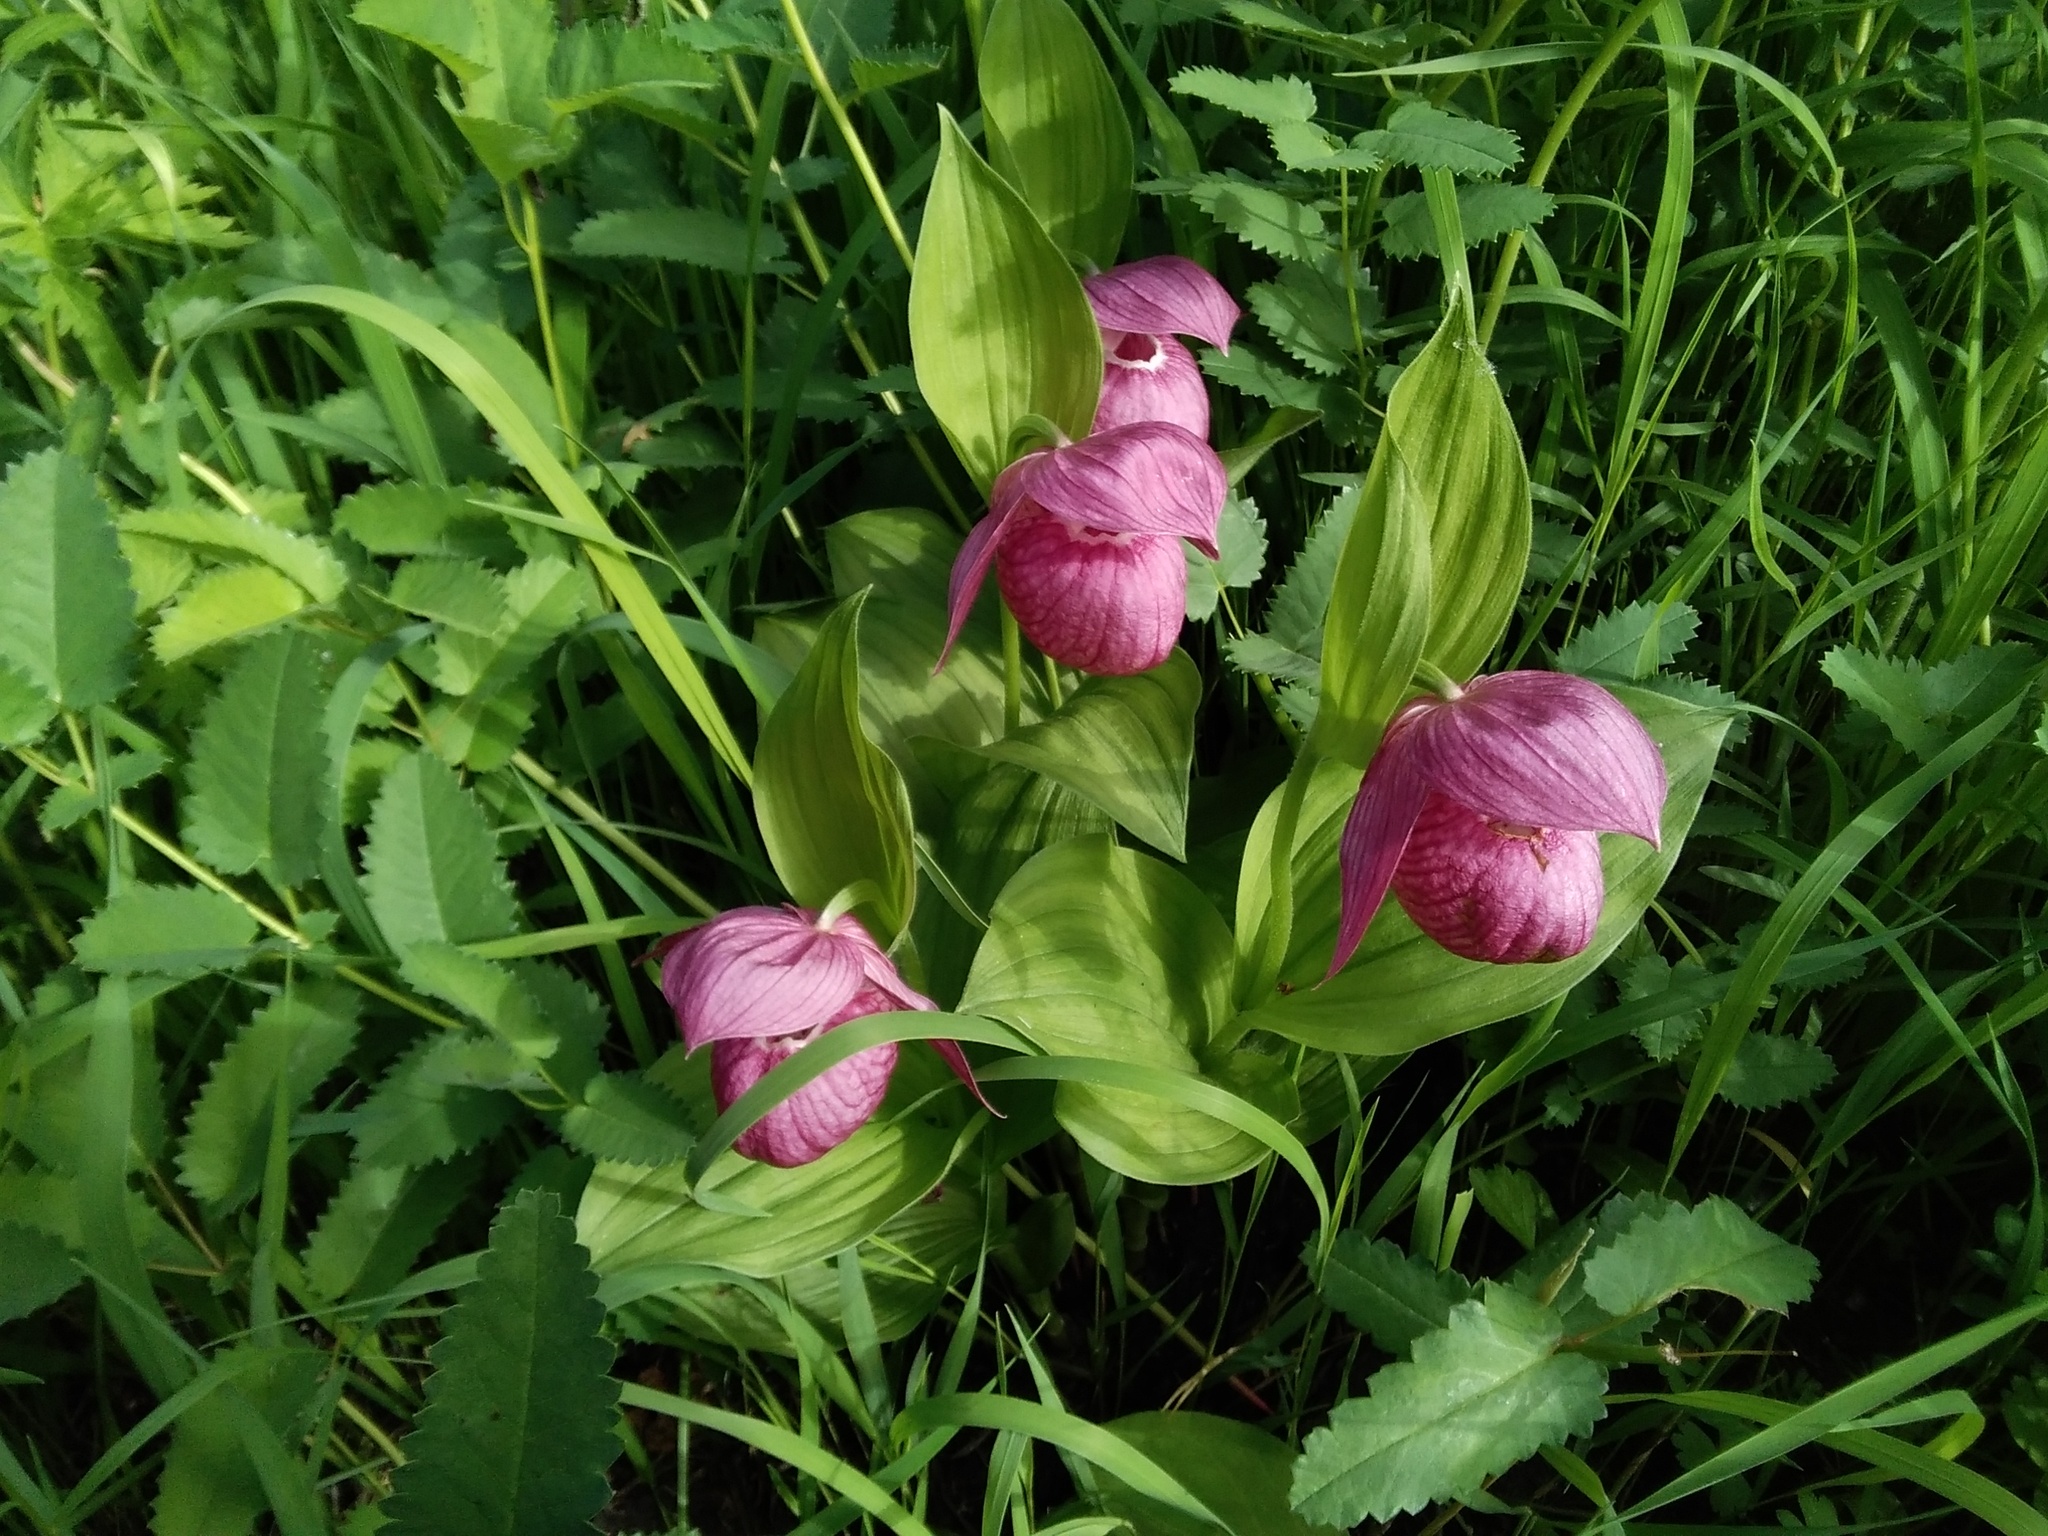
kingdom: Plantae
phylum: Tracheophyta
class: Liliopsida
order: Asparagales
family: Orchidaceae
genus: Cypripedium
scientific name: Cypripedium macranthos
